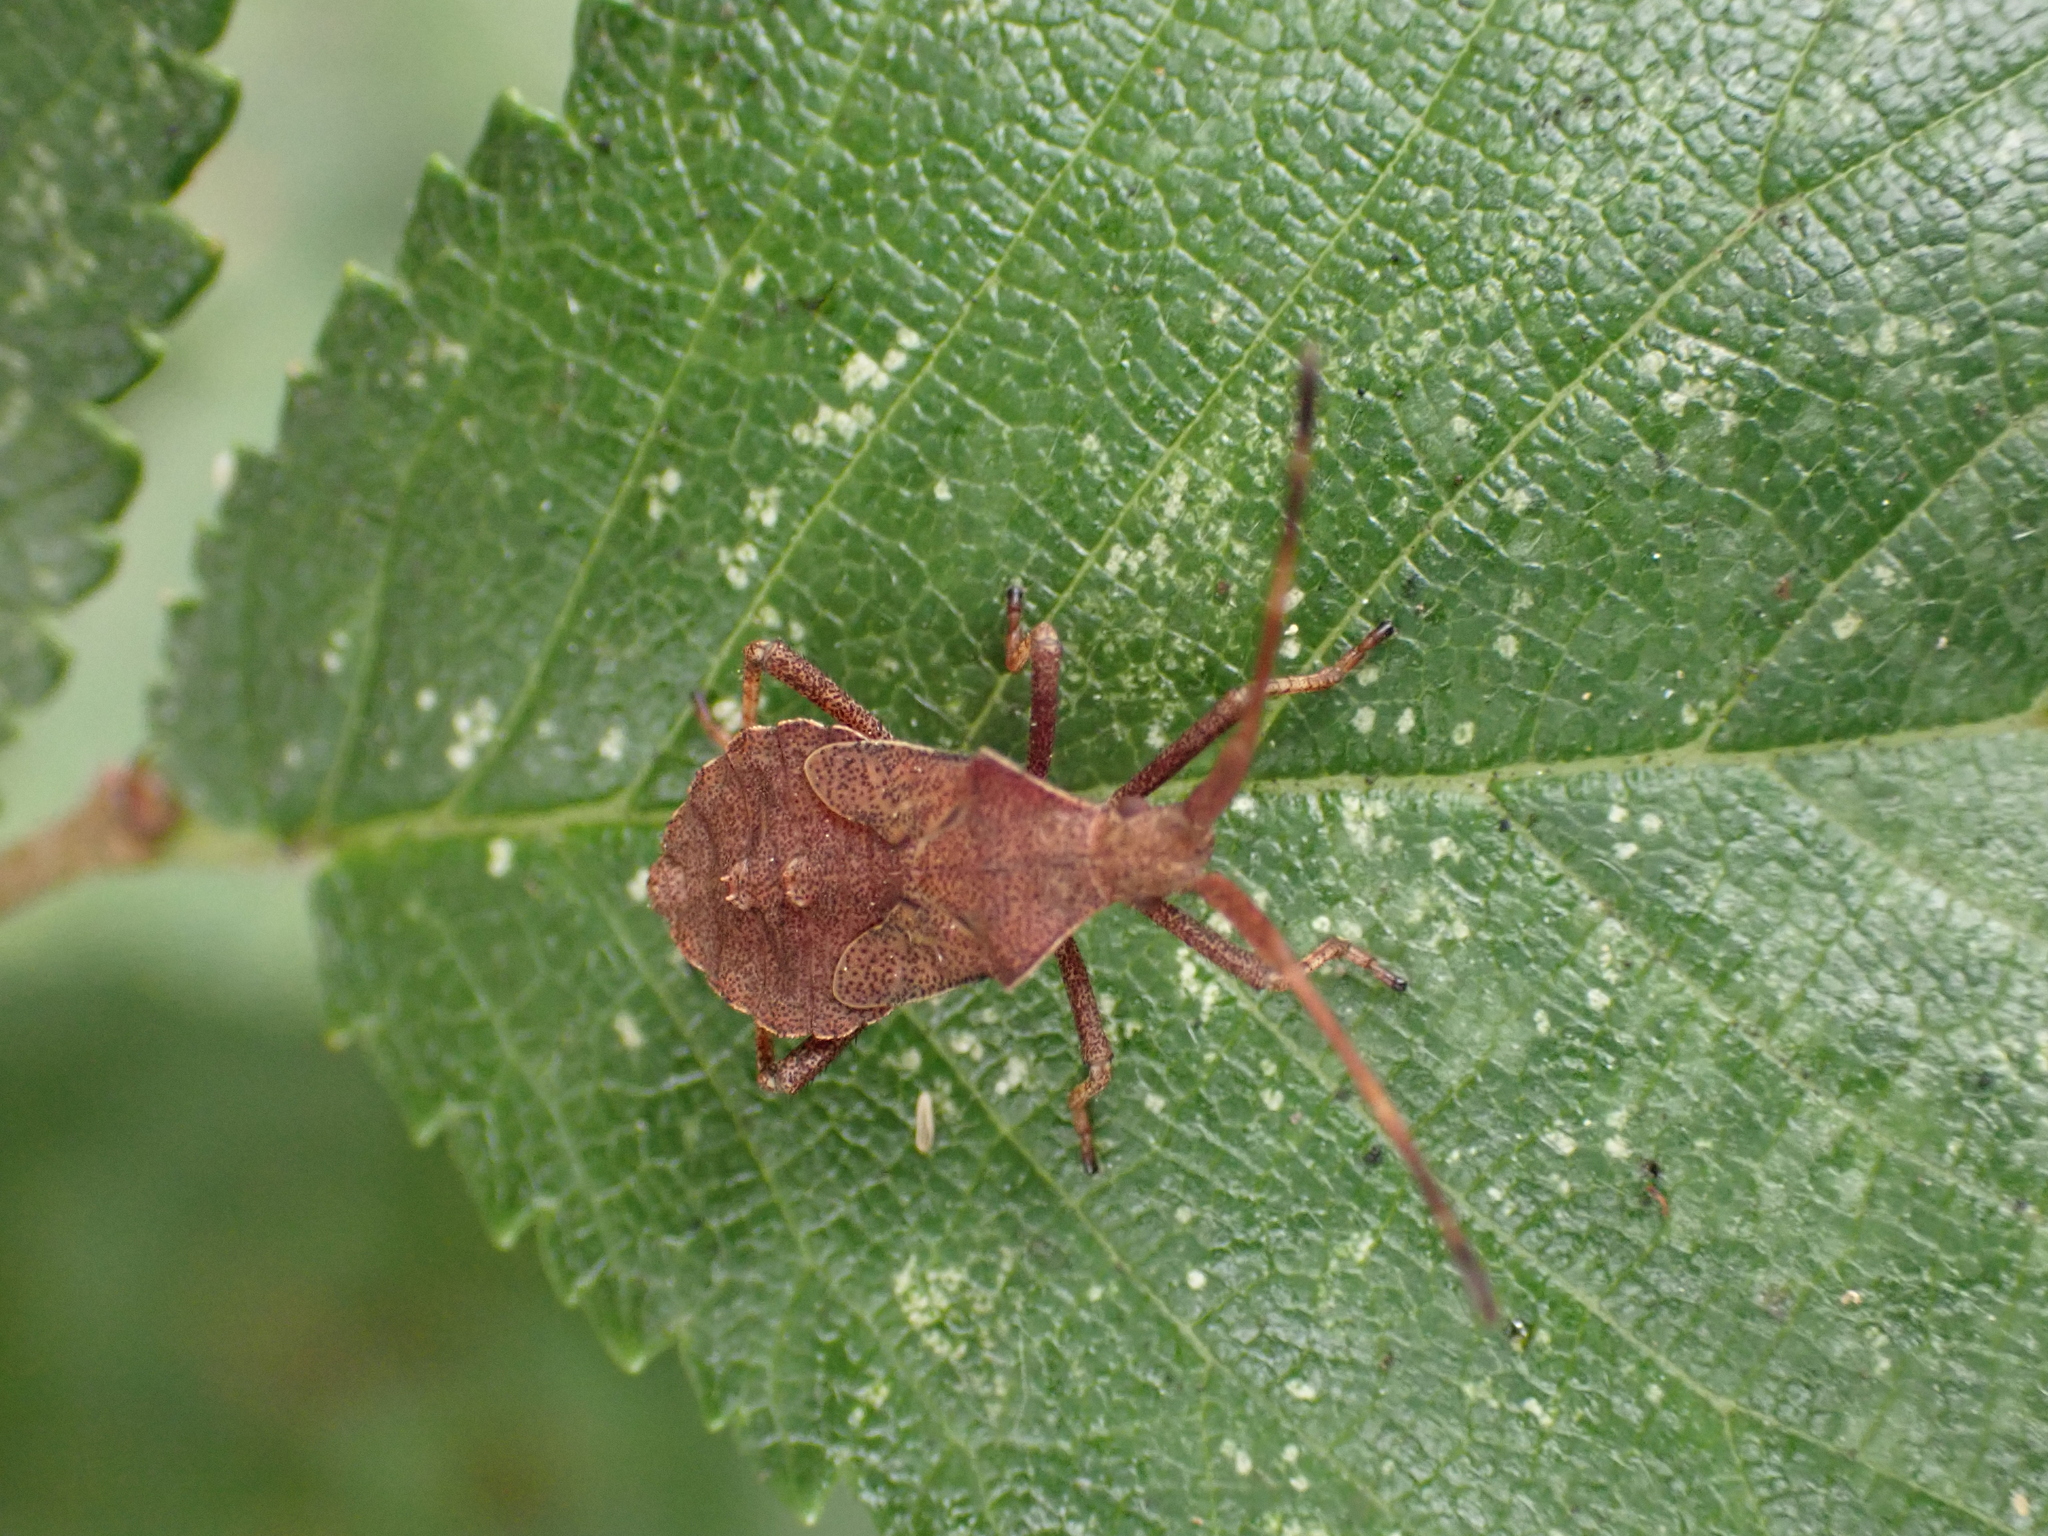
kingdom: Animalia
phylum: Arthropoda
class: Insecta
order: Hemiptera
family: Coreidae
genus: Coreus
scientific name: Coreus marginatus
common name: Dock bug
